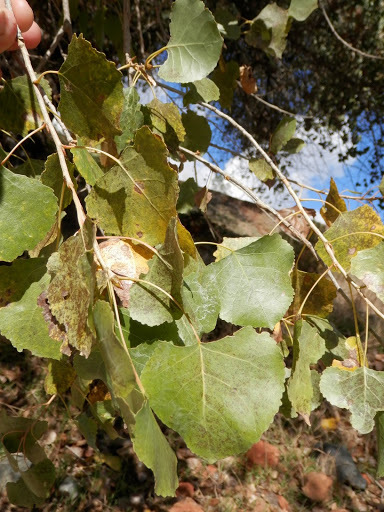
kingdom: Plantae
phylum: Tracheophyta
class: Magnoliopsida
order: Malpighiales
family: Salicaceae
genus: Populus
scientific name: Populus fremontii
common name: Fremont's cottonwood
